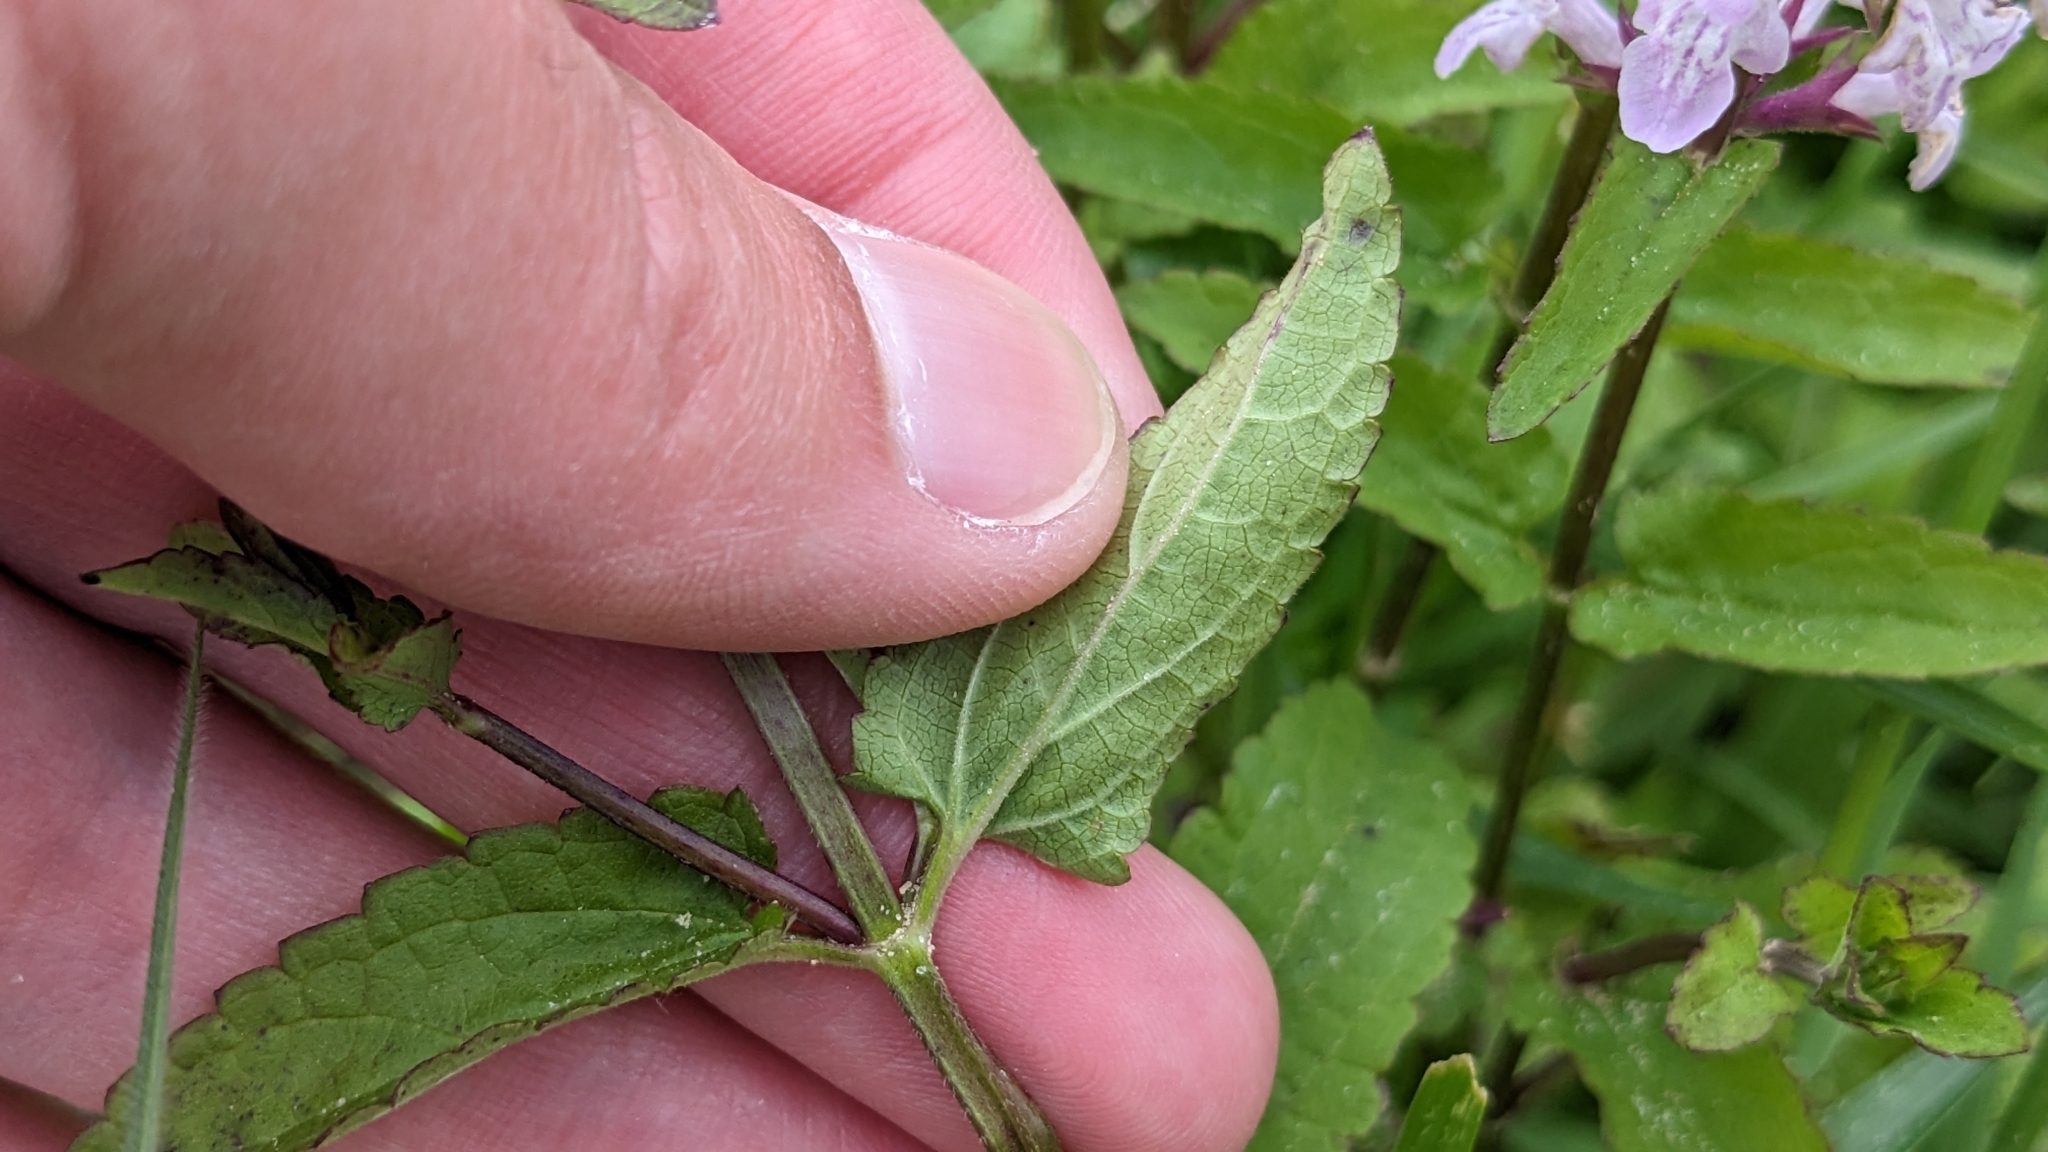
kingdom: Plantae
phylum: Tracheophyta
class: Magnoliopsida
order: Lamiales
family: Lamiaceae
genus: Stachys
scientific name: Stachys floridana
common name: Florida betony
